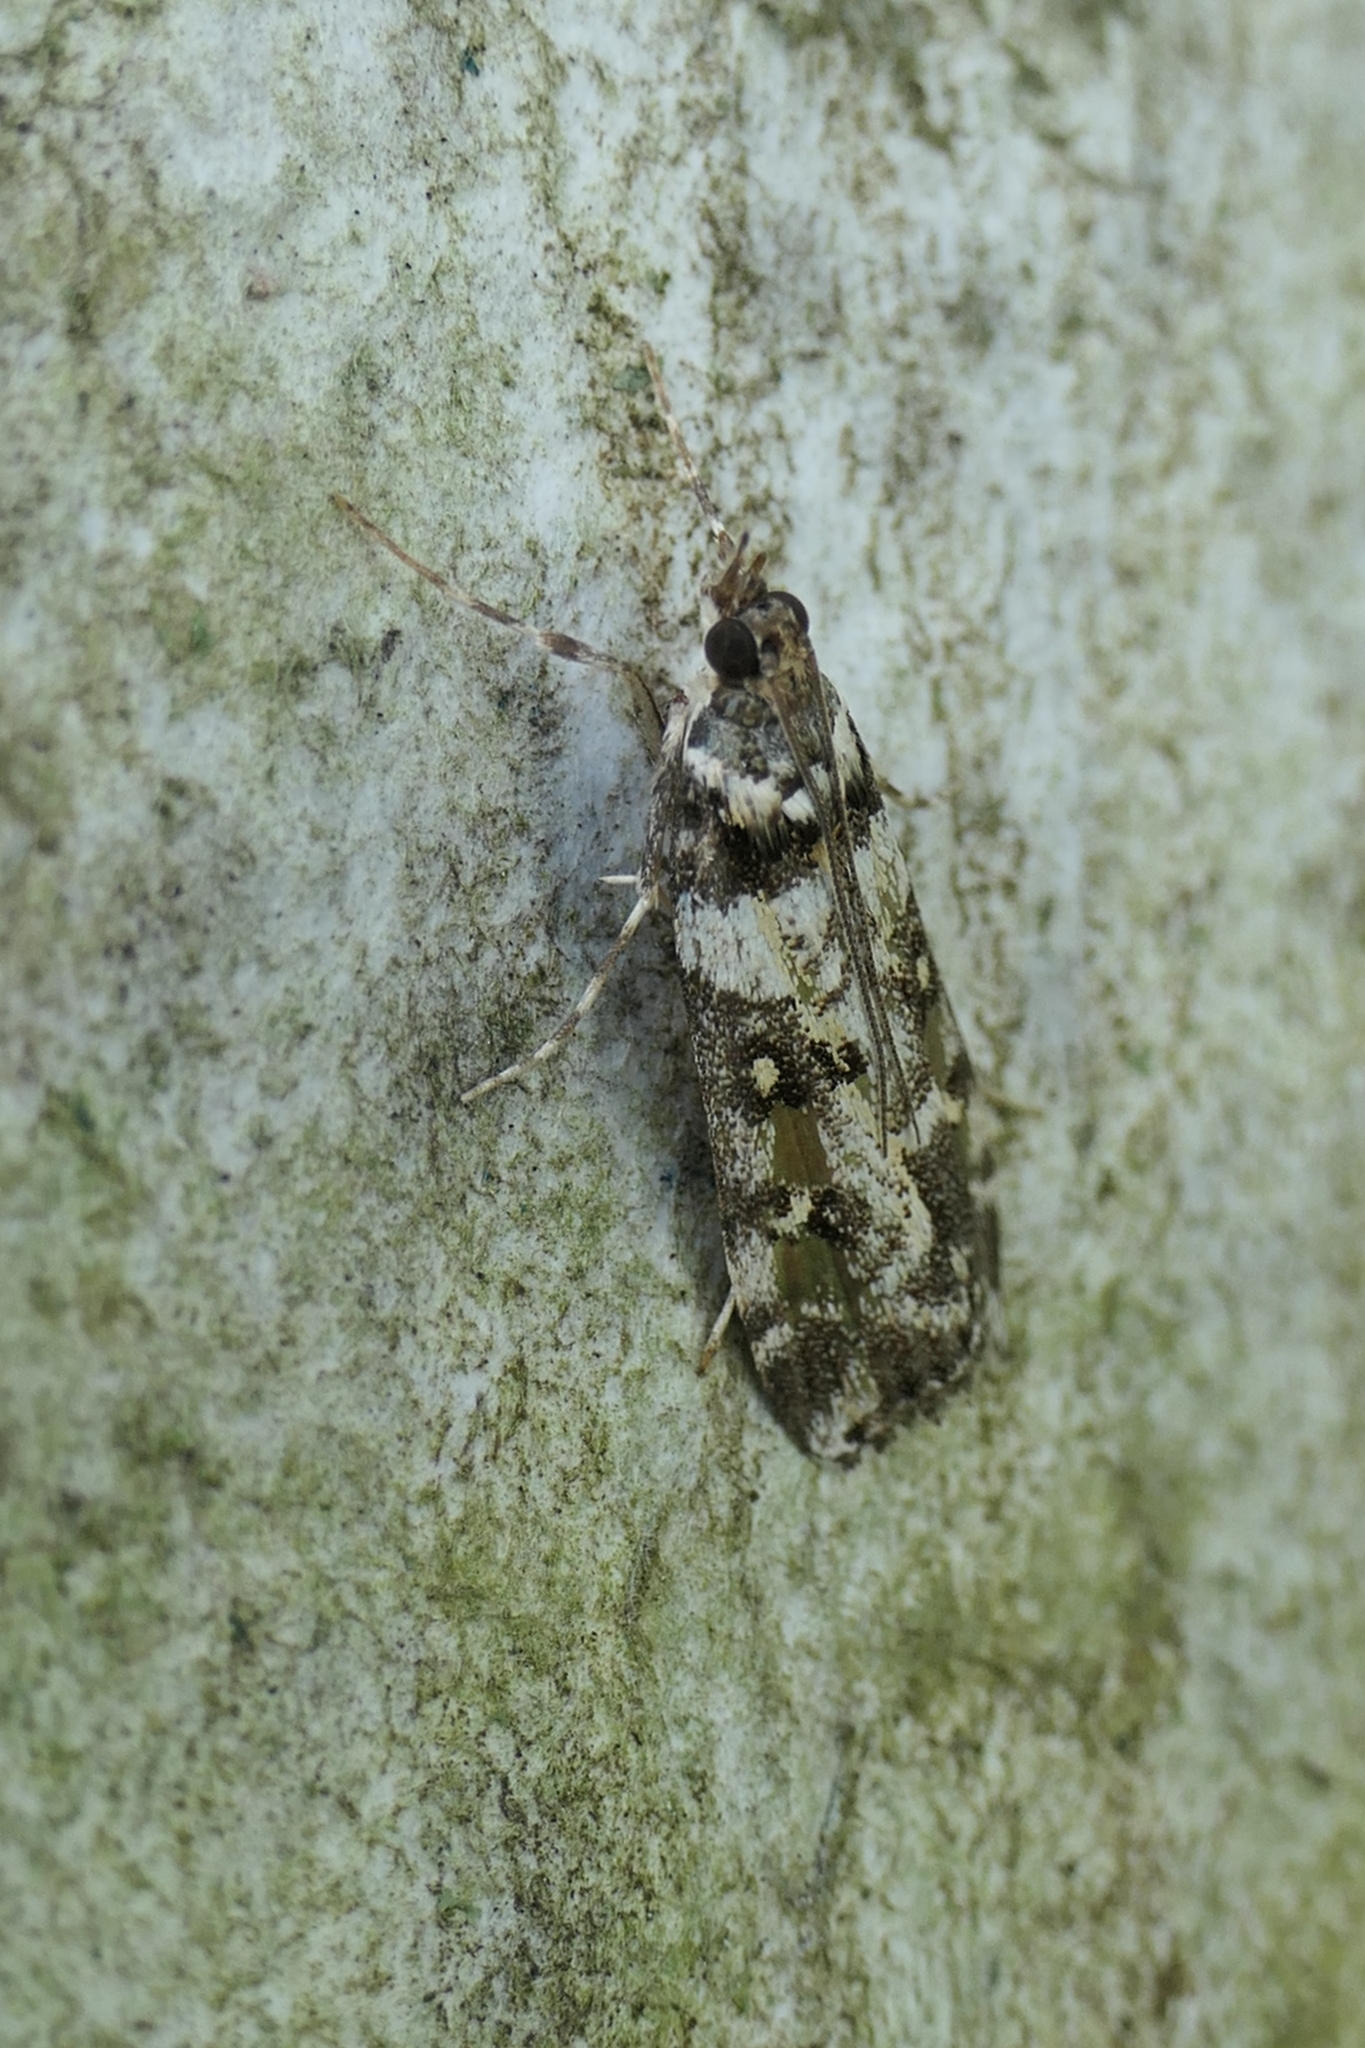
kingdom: Animalia
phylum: Arthropoda
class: Insecta
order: Lepidoptera
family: Crambidae
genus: Eudonia
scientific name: Eudonia diphtheralis
